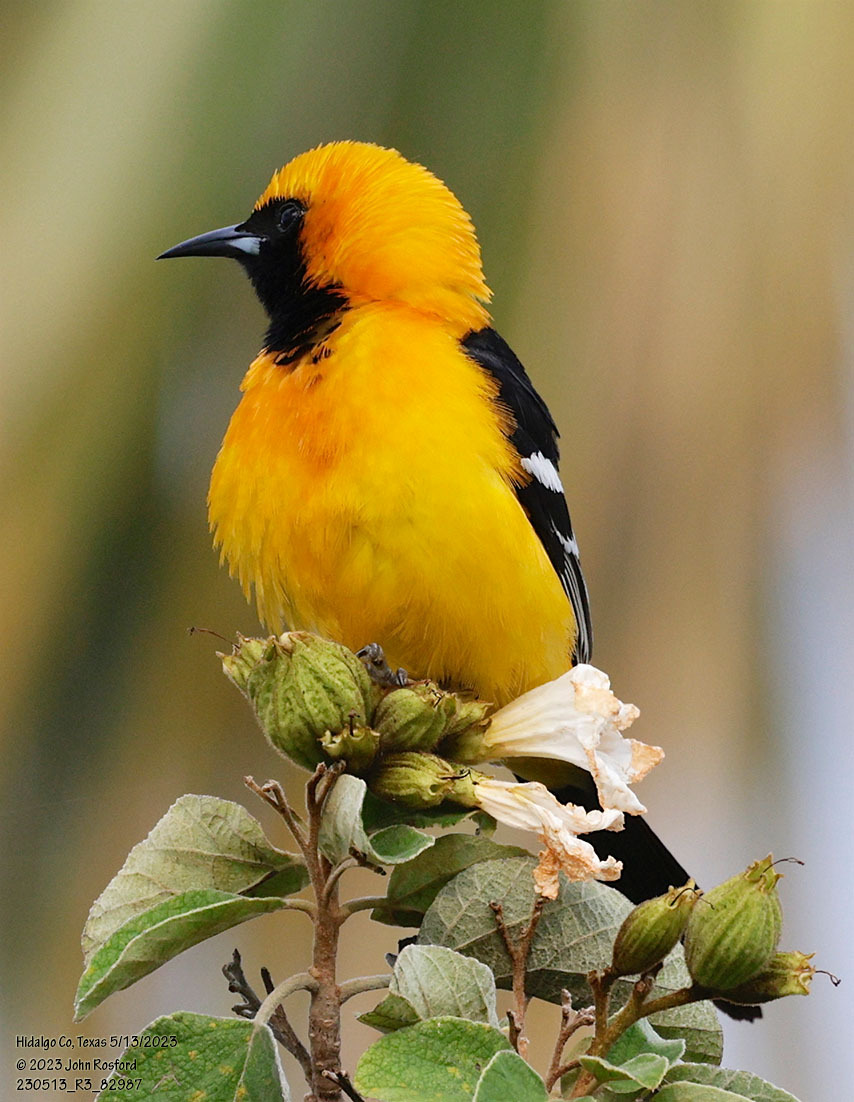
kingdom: Animalia
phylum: Chordata
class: Aves
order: Passeriformes
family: Icteridae
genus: Icterus
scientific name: Icterus cucullatus
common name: Hooded oriole
